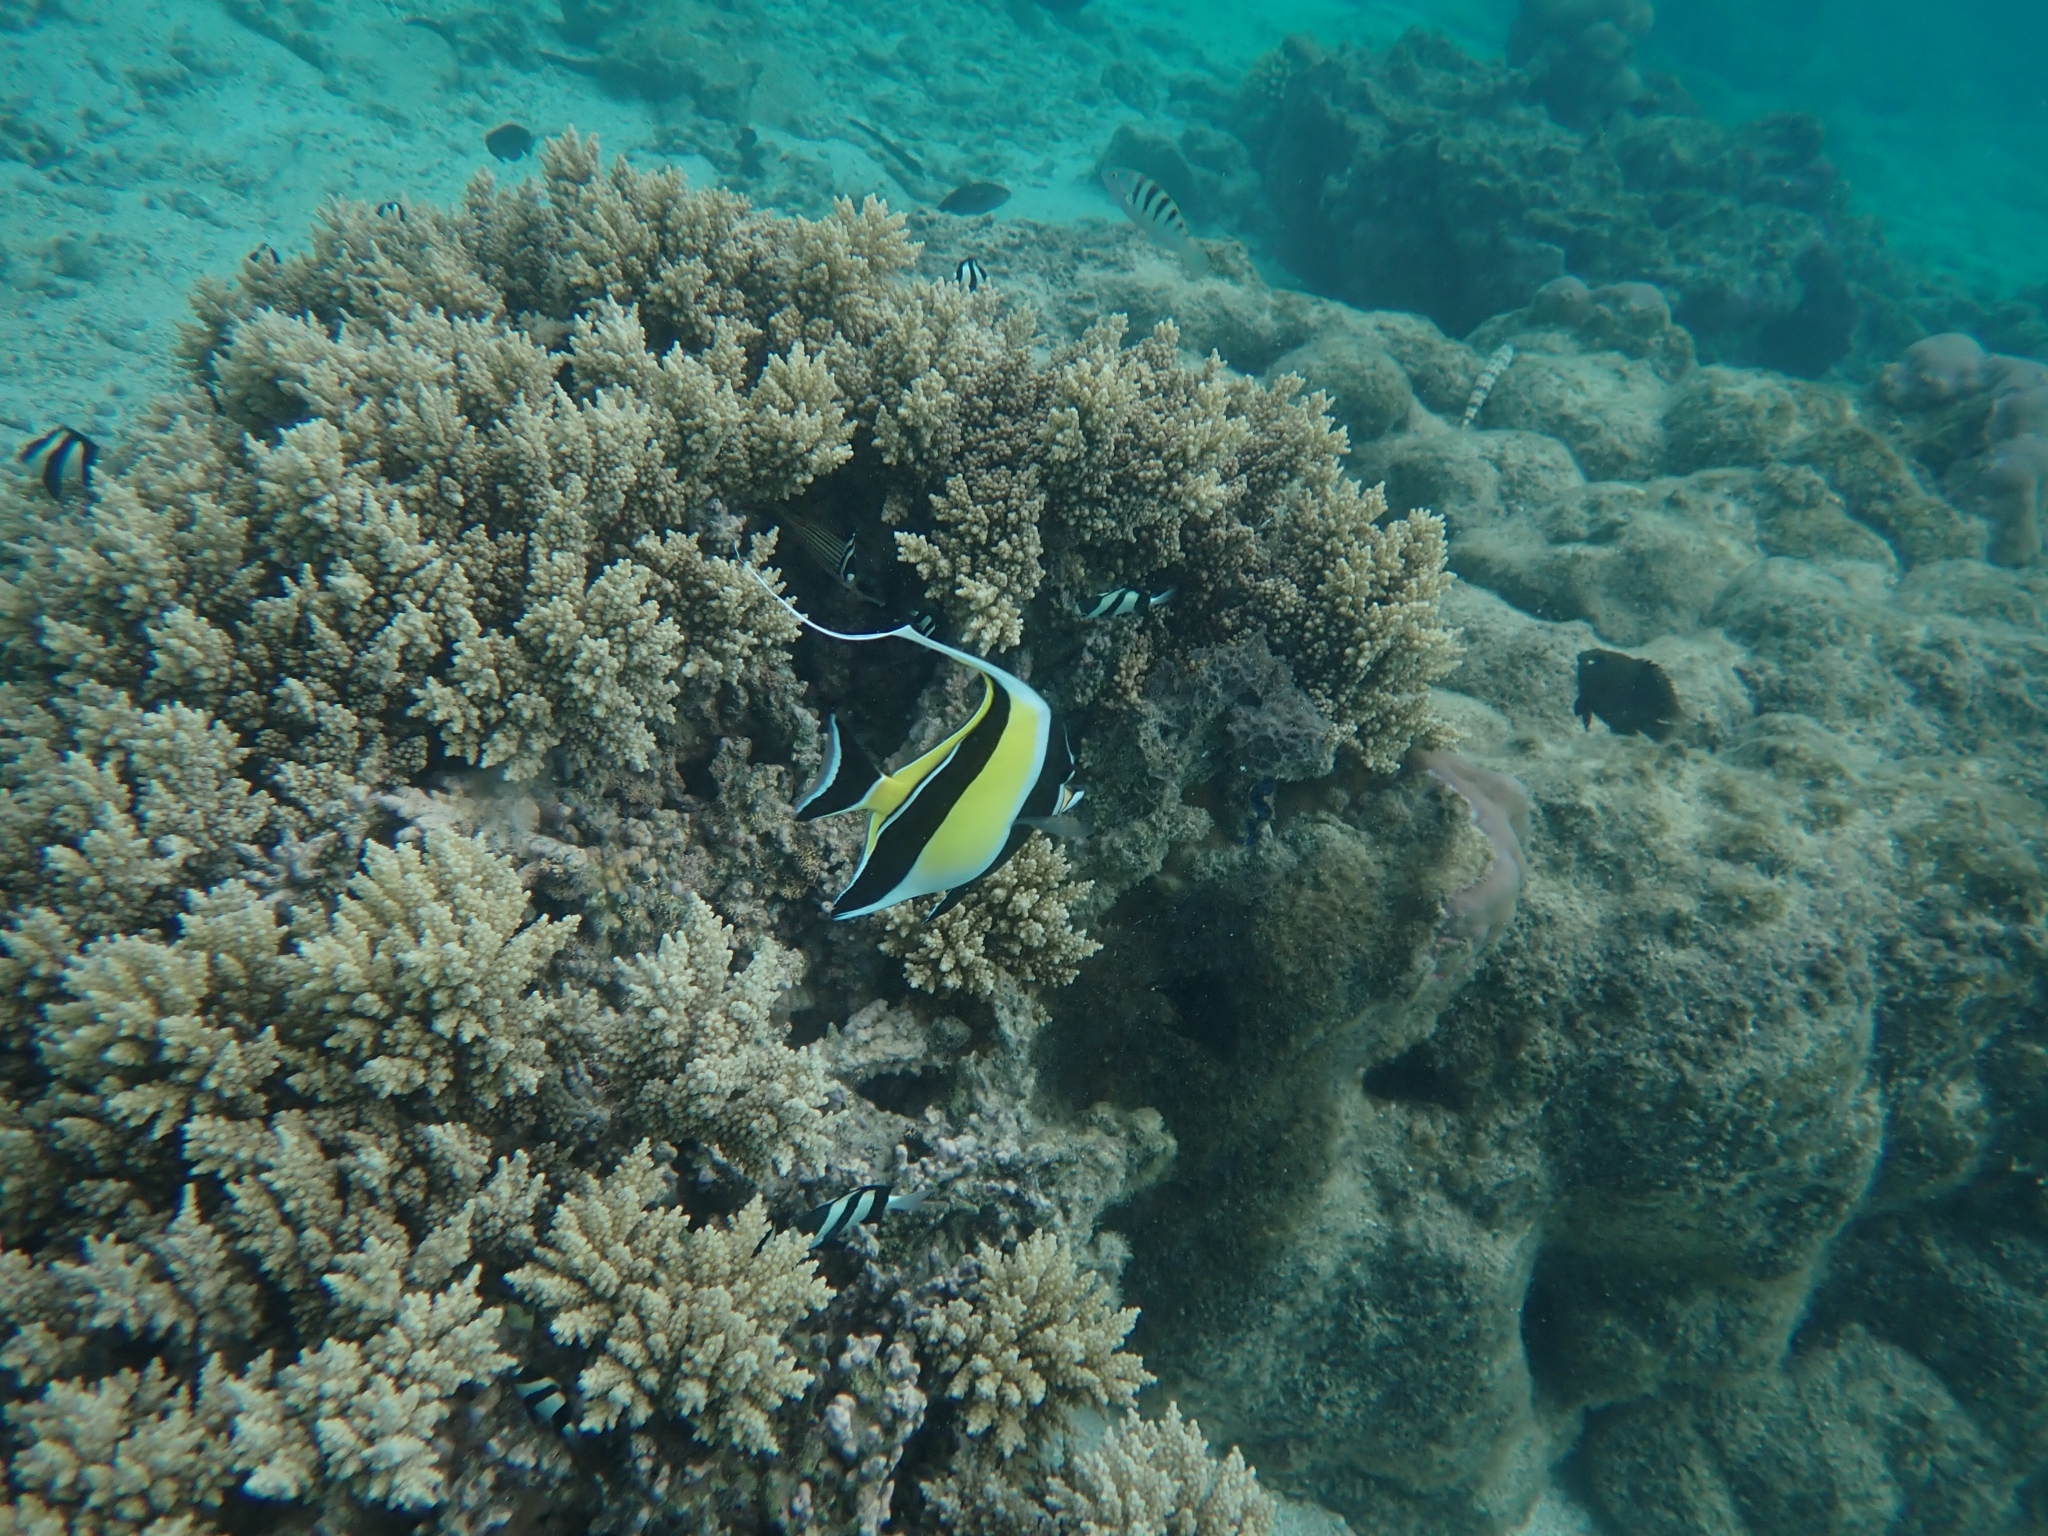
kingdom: Animalia
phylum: Chordata
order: Perciformes
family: Zanclidae
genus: Zanclus
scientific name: Zanclus cornutus
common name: Moorish idol
